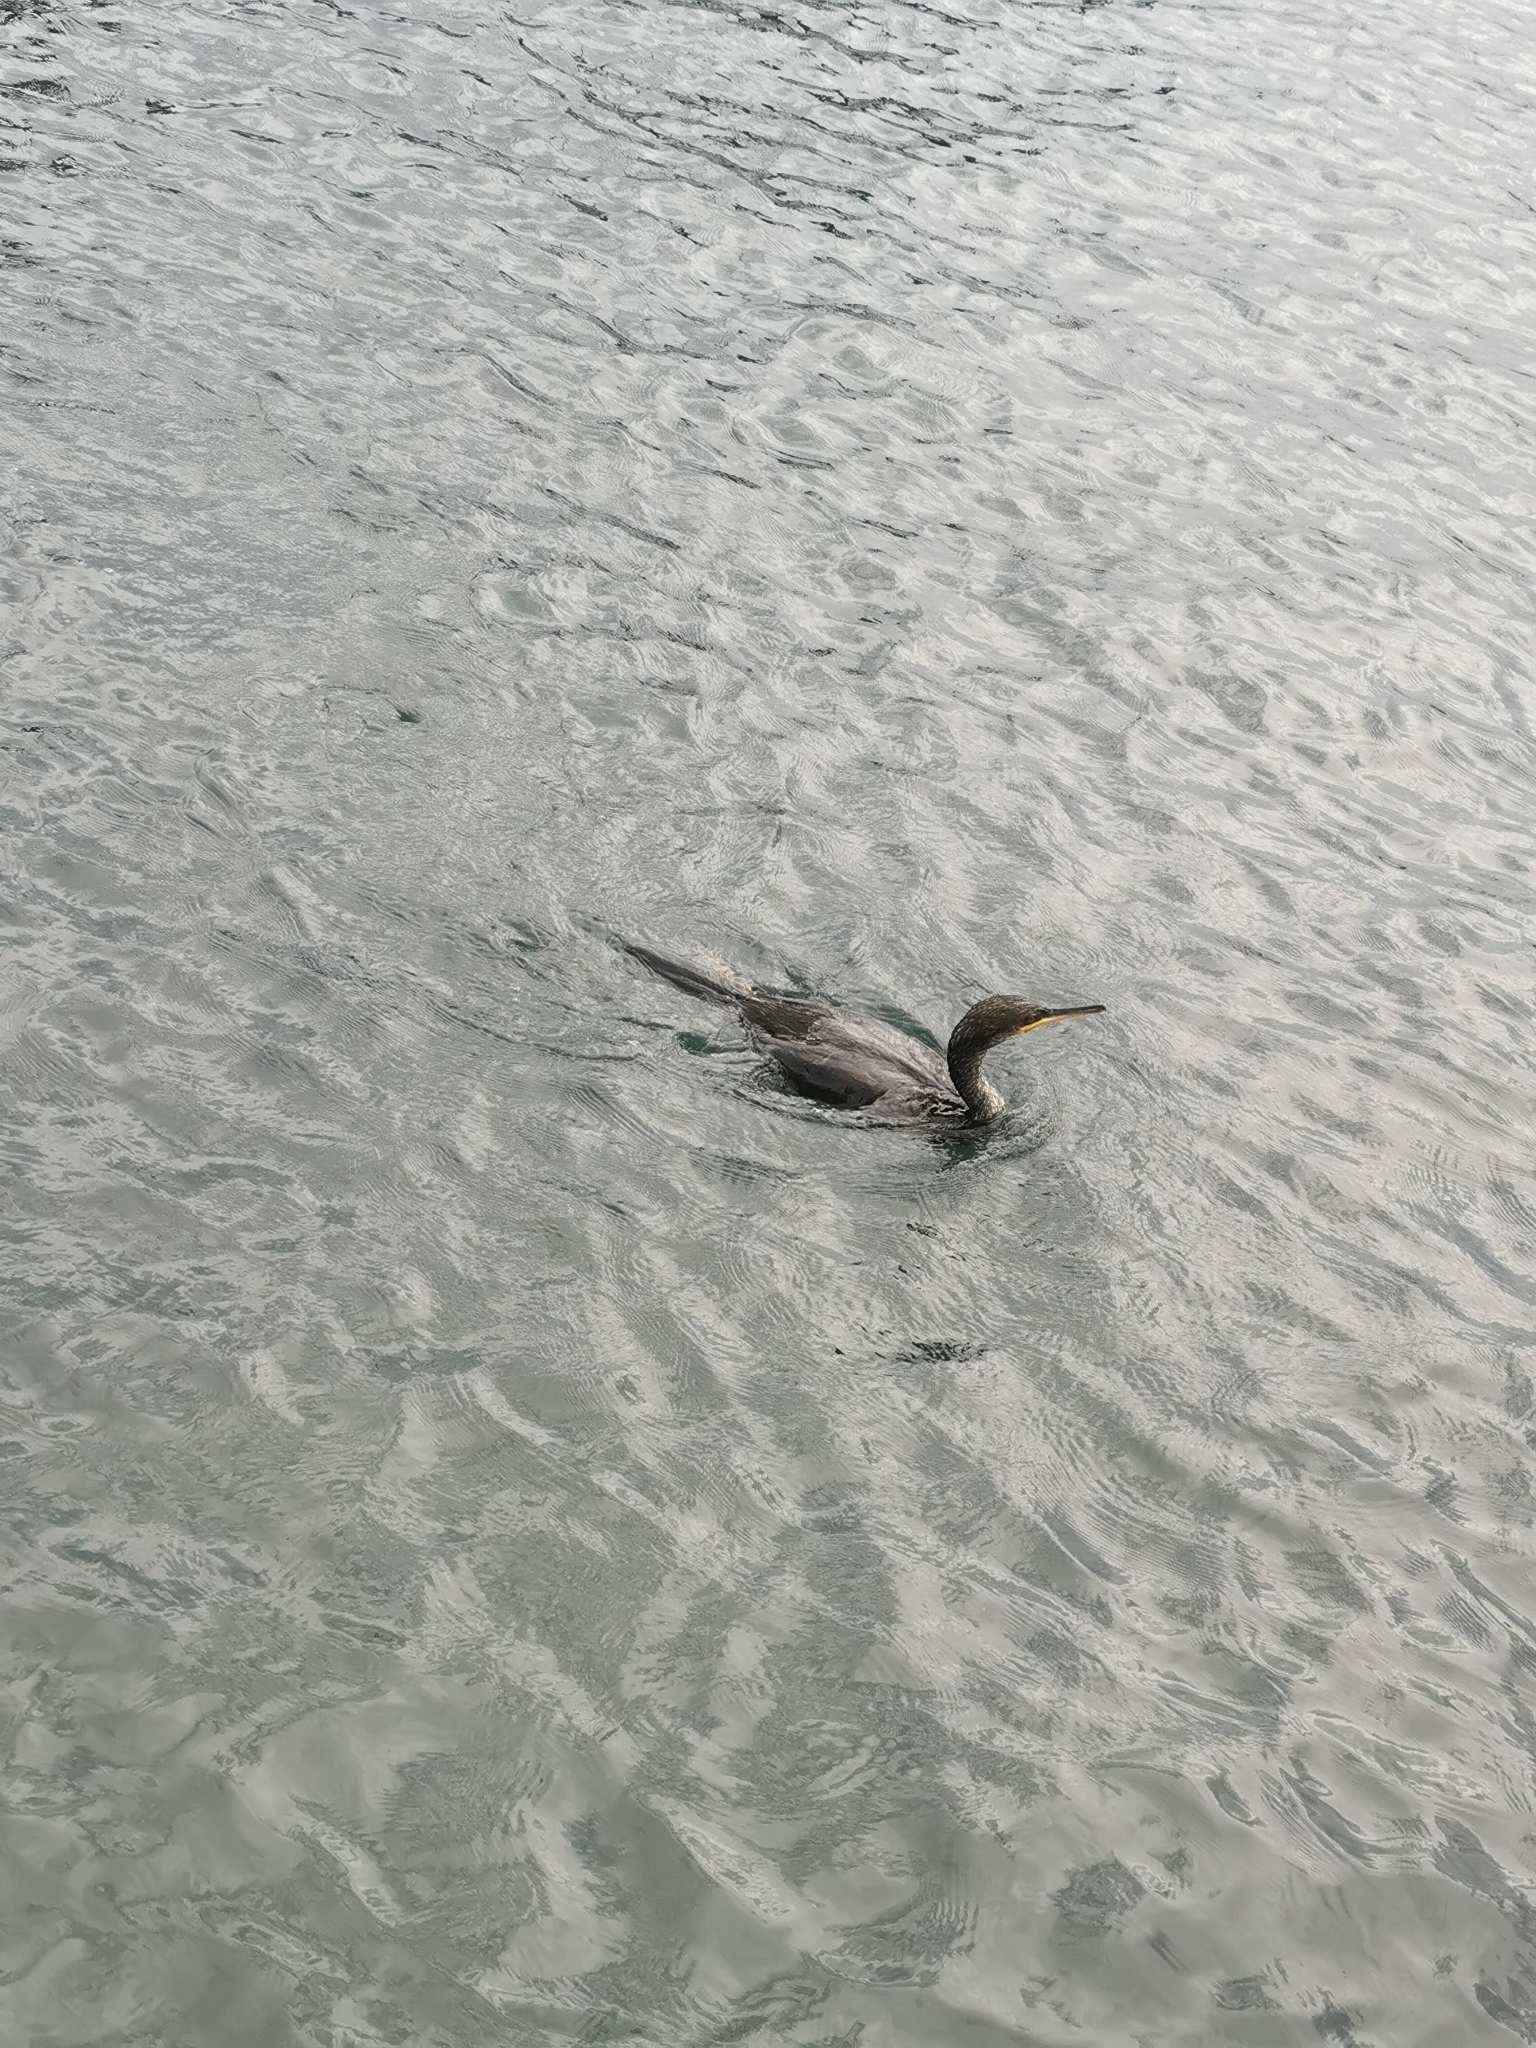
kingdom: Animalia
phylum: Chordata
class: Aves
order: Suliformes
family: Phalacrocoracidae
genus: Phalacrocorax
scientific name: Phalacrocorax aristotelis
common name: European shag
